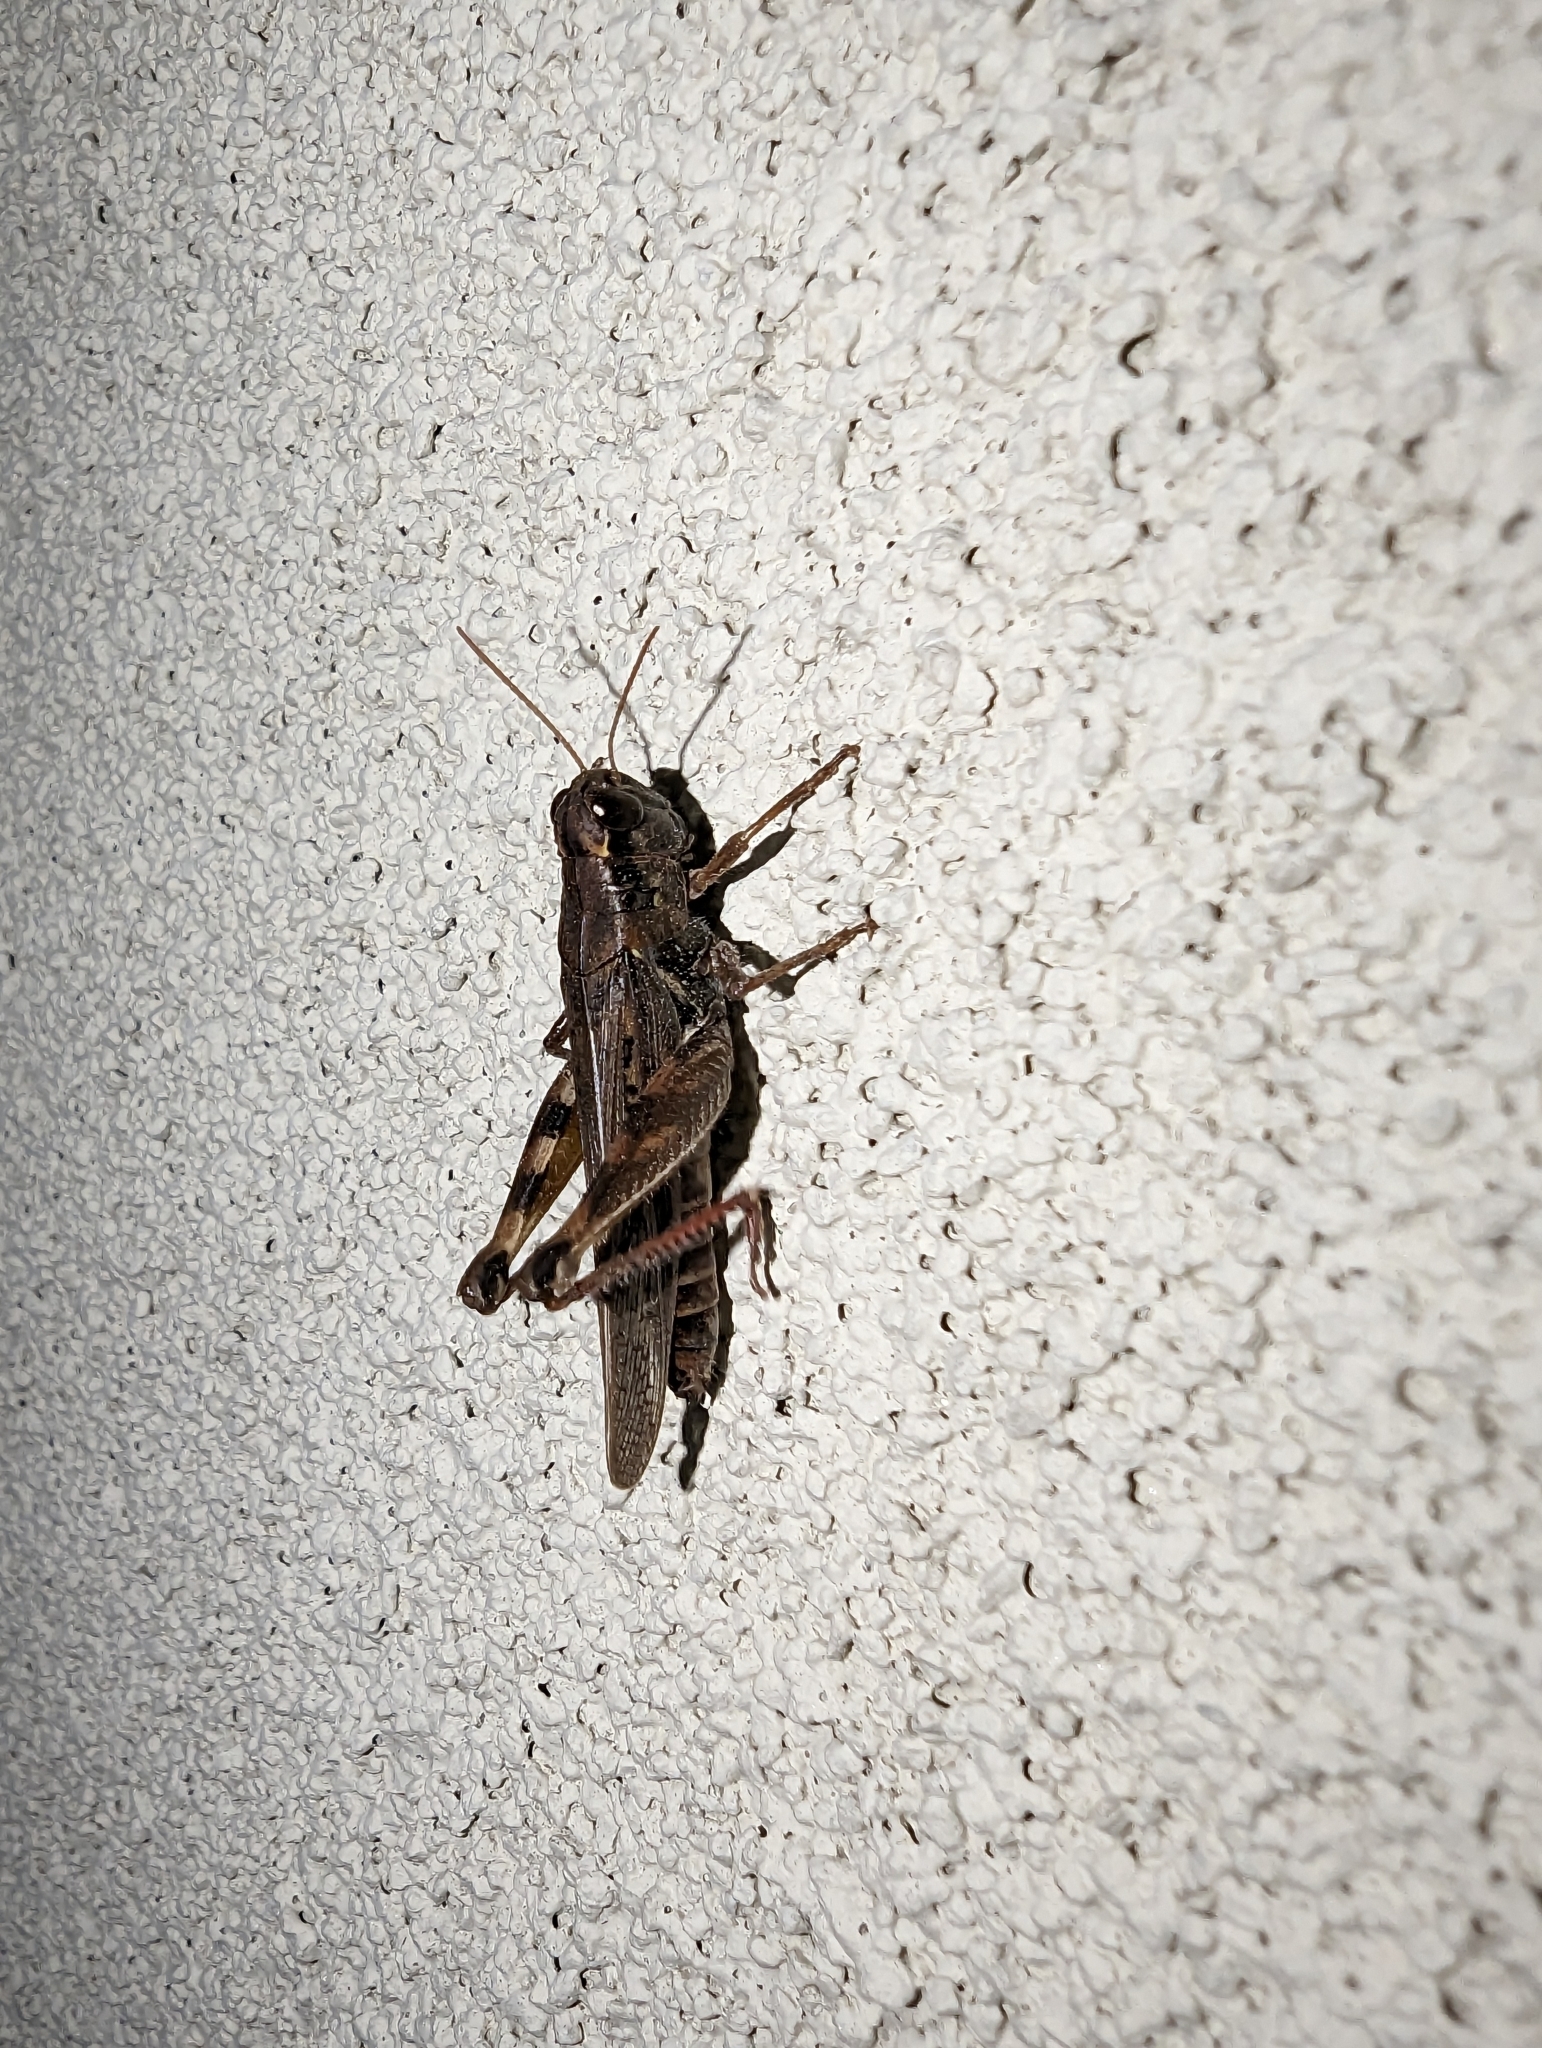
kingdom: Animalia
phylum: Arthropoda
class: Insecta
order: Orthoptera
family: Acrididae
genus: Melanoplus
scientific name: Melanoplus sanguinipes
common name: Migratory grasshopper
